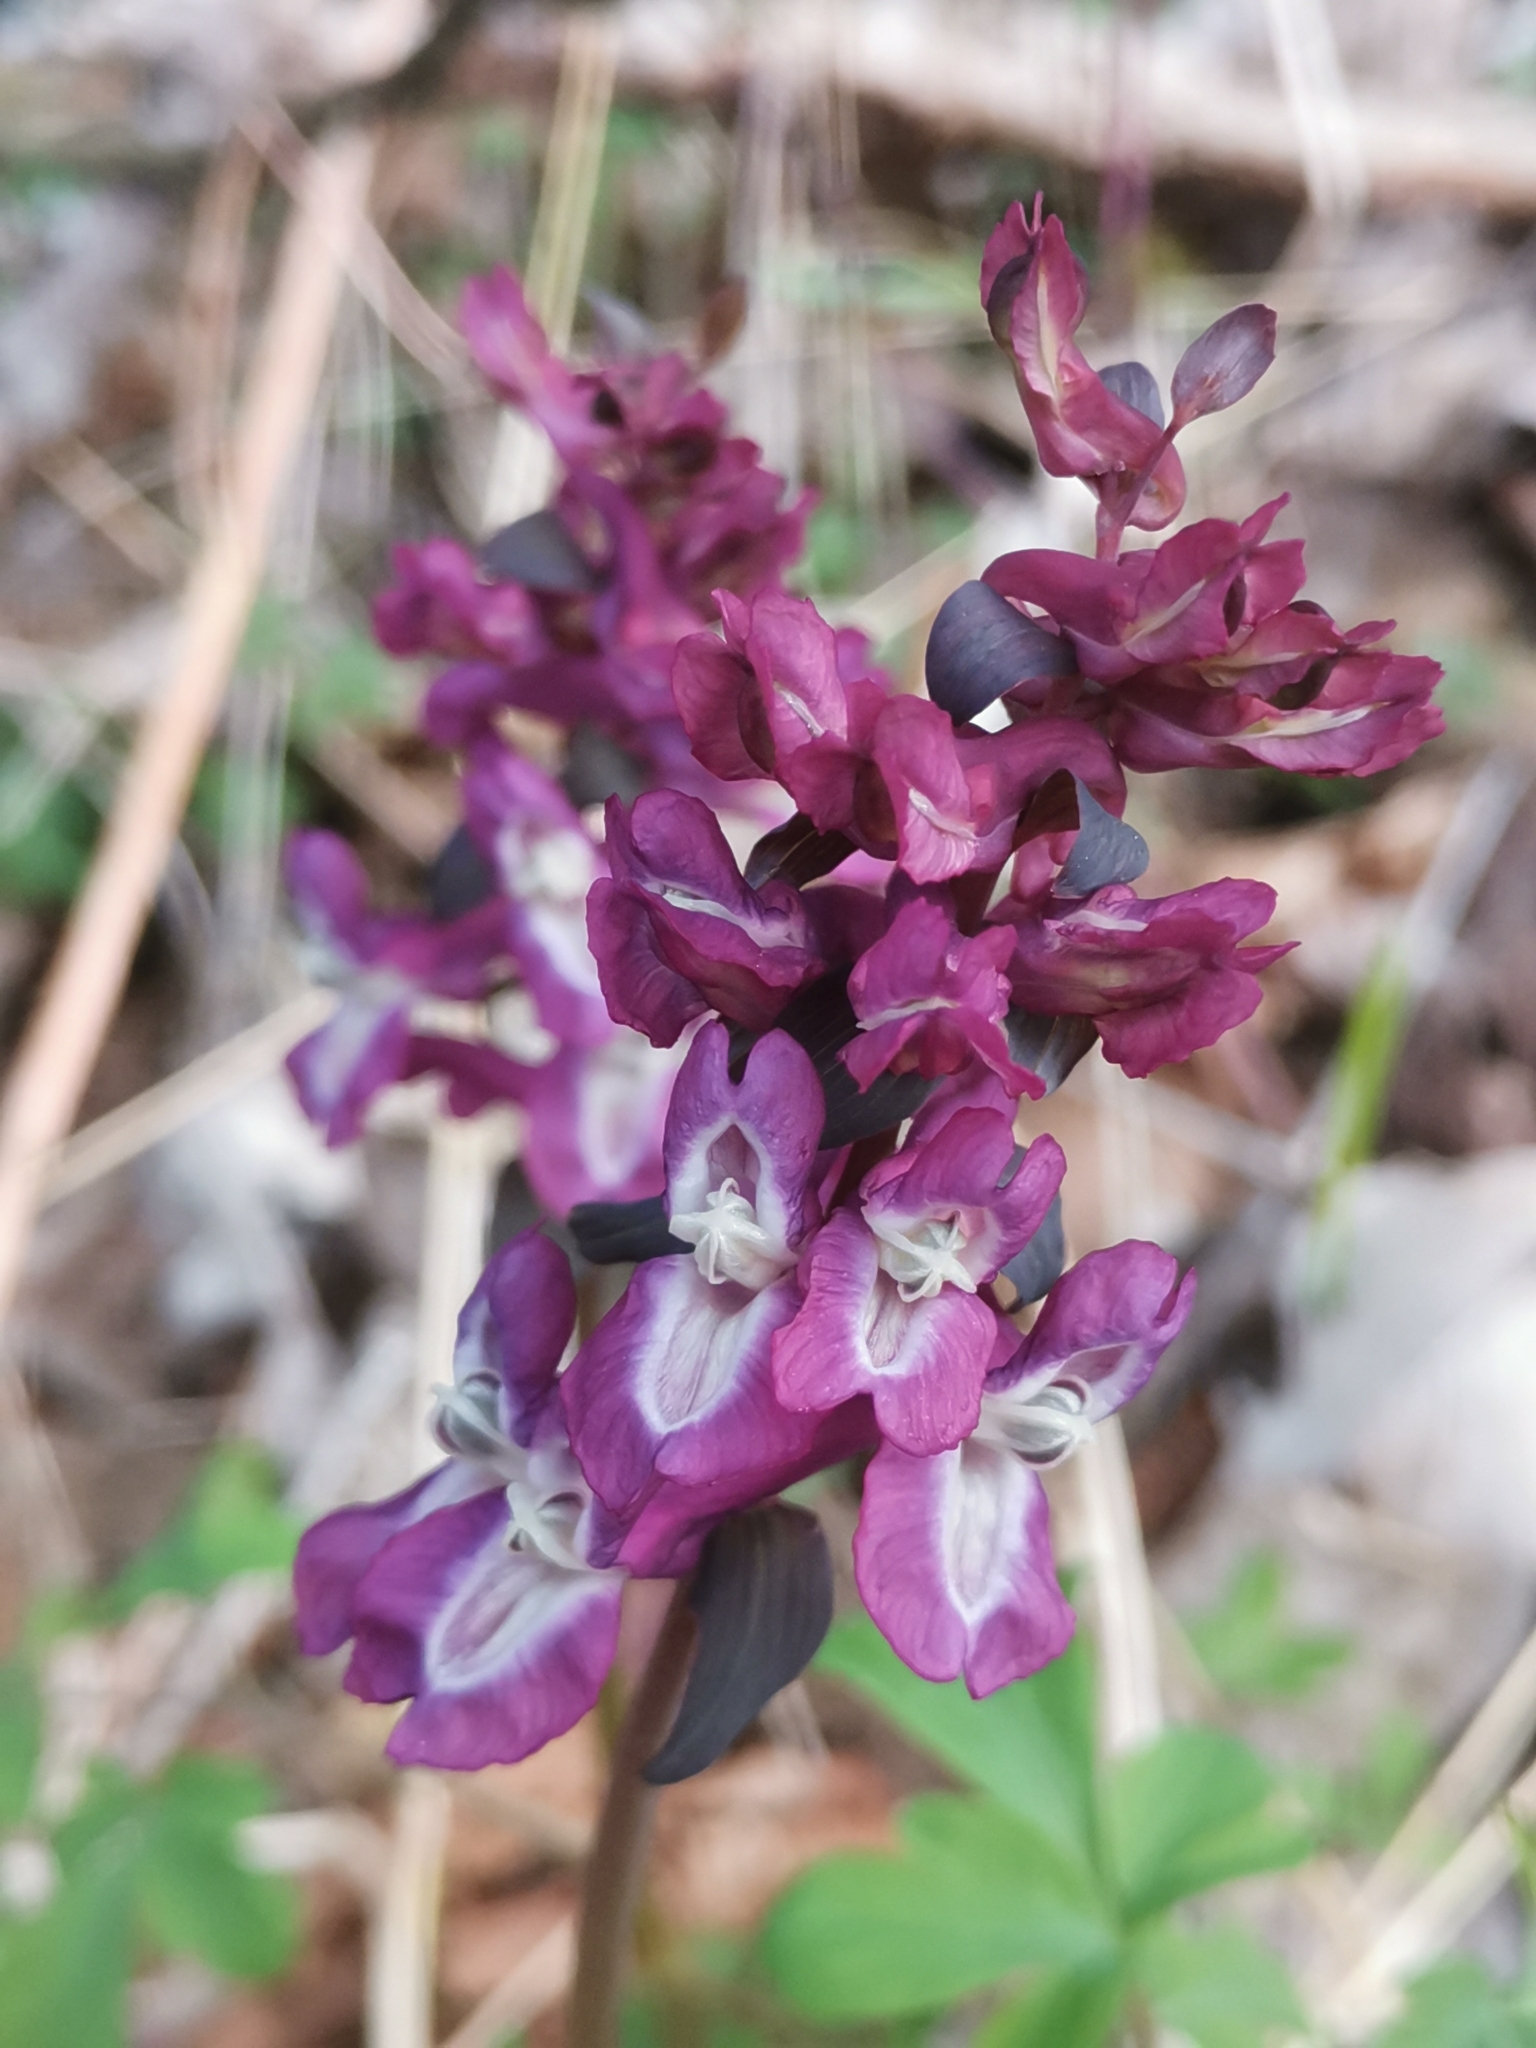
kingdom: Plantae
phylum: Tracheophyta
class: Magnoliopsida
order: Ranunculales
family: Papaveraceae
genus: Corydalis
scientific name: Corydalis cava
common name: Hollowroot
